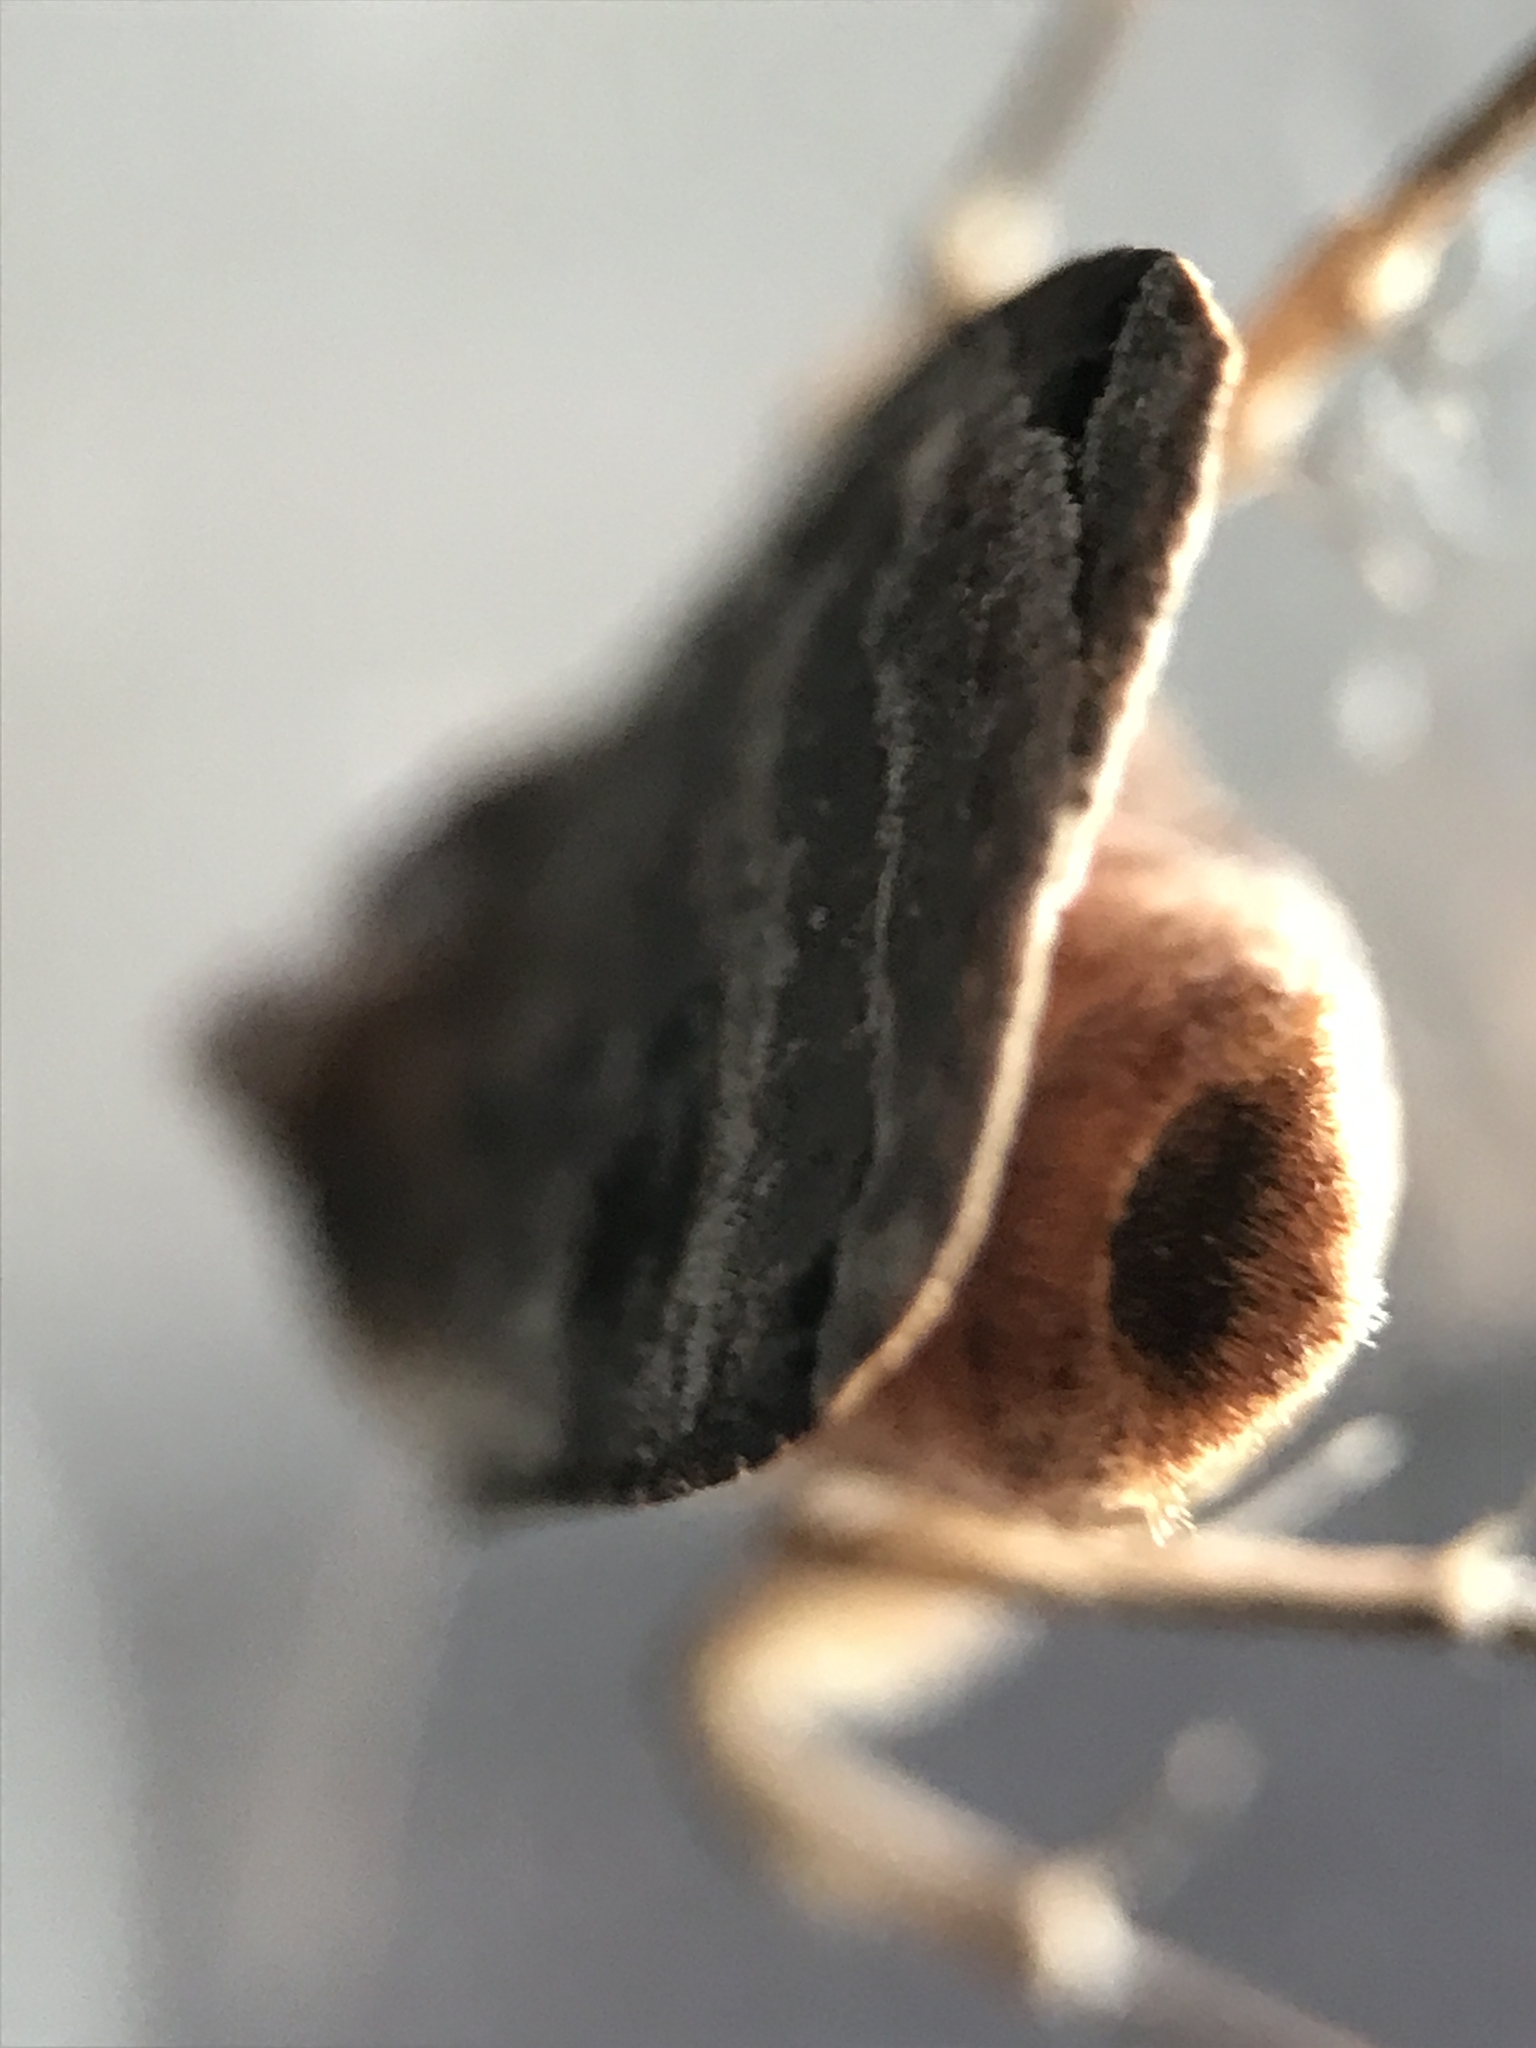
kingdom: Animalia
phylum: Arthropoda
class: Insecta
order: Lepidoptera
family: Noctuidae
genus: Noctua
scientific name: Noctua pronuba
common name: Large yellow underwing
